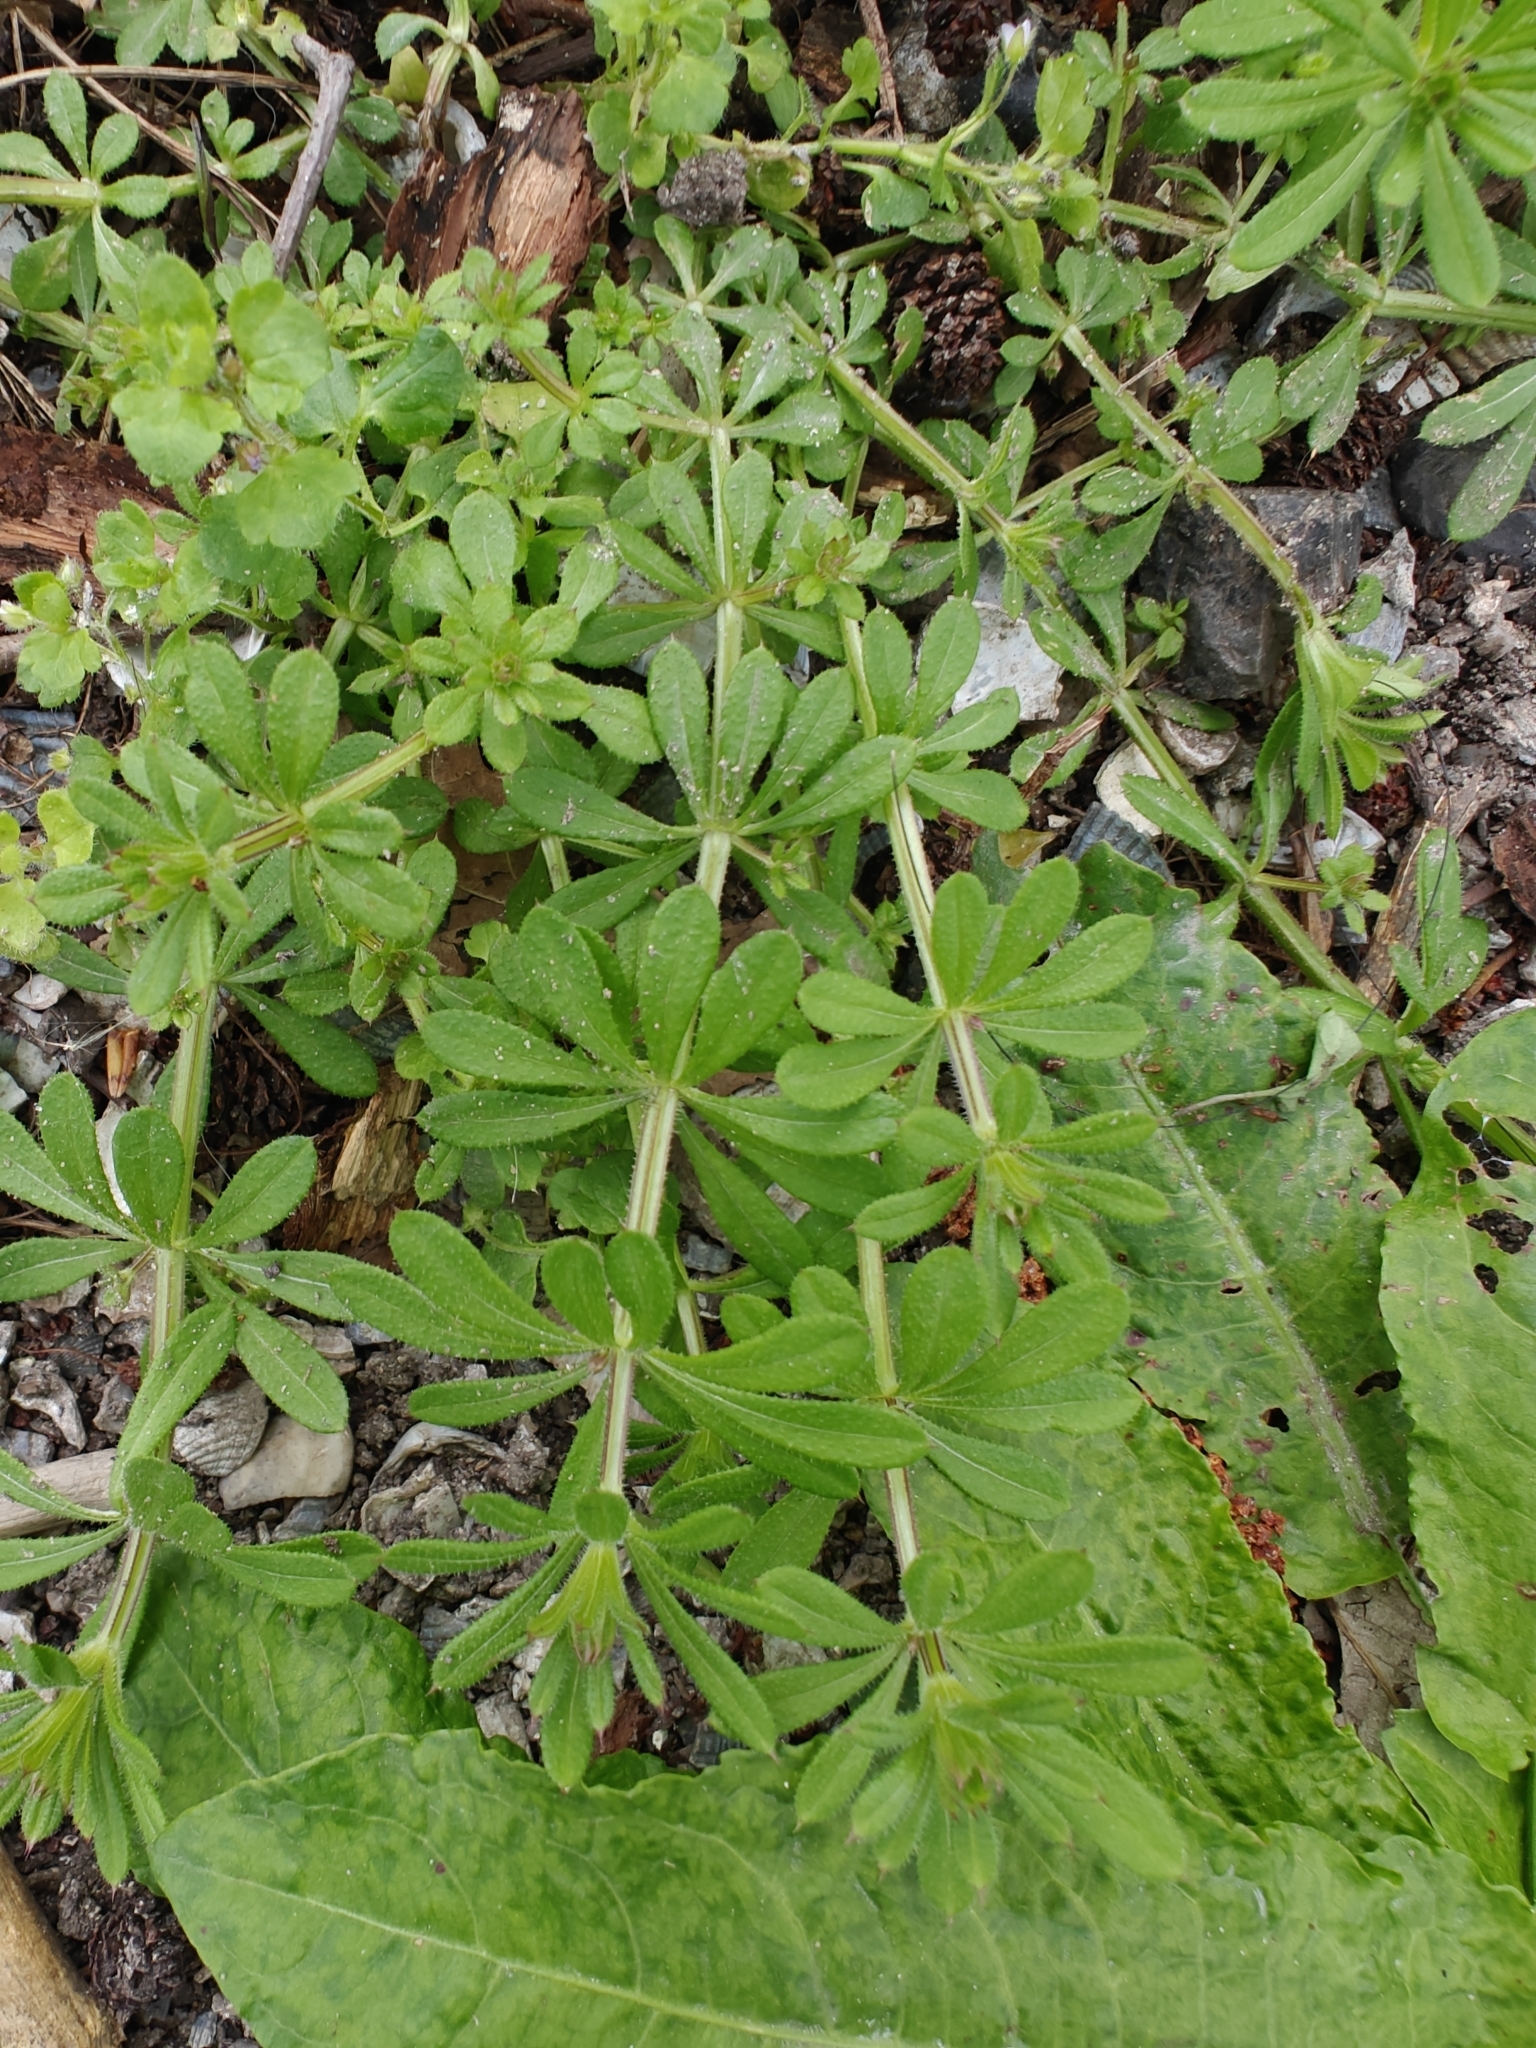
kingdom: Plantae
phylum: Tracheophyta
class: Magnoliopsida
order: Gentianales
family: Rubiaceae
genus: Galium
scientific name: Galium aparine
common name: Cleavers
